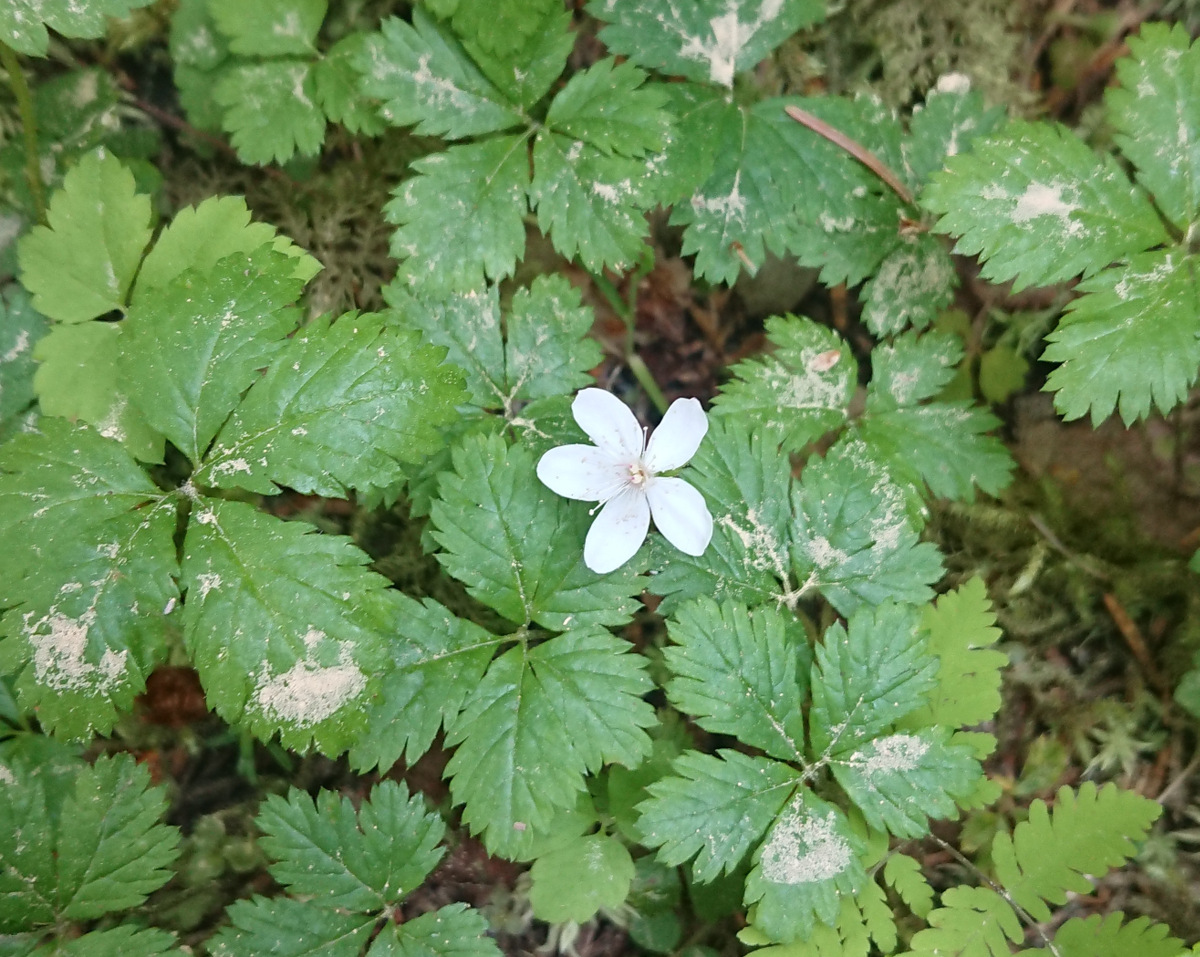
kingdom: Plantae
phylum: Tracheophyta
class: Magnoliopsida
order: Rosales
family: Rosaceae
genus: Rubus
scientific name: Rubus pedatus
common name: Creeping raspberry
